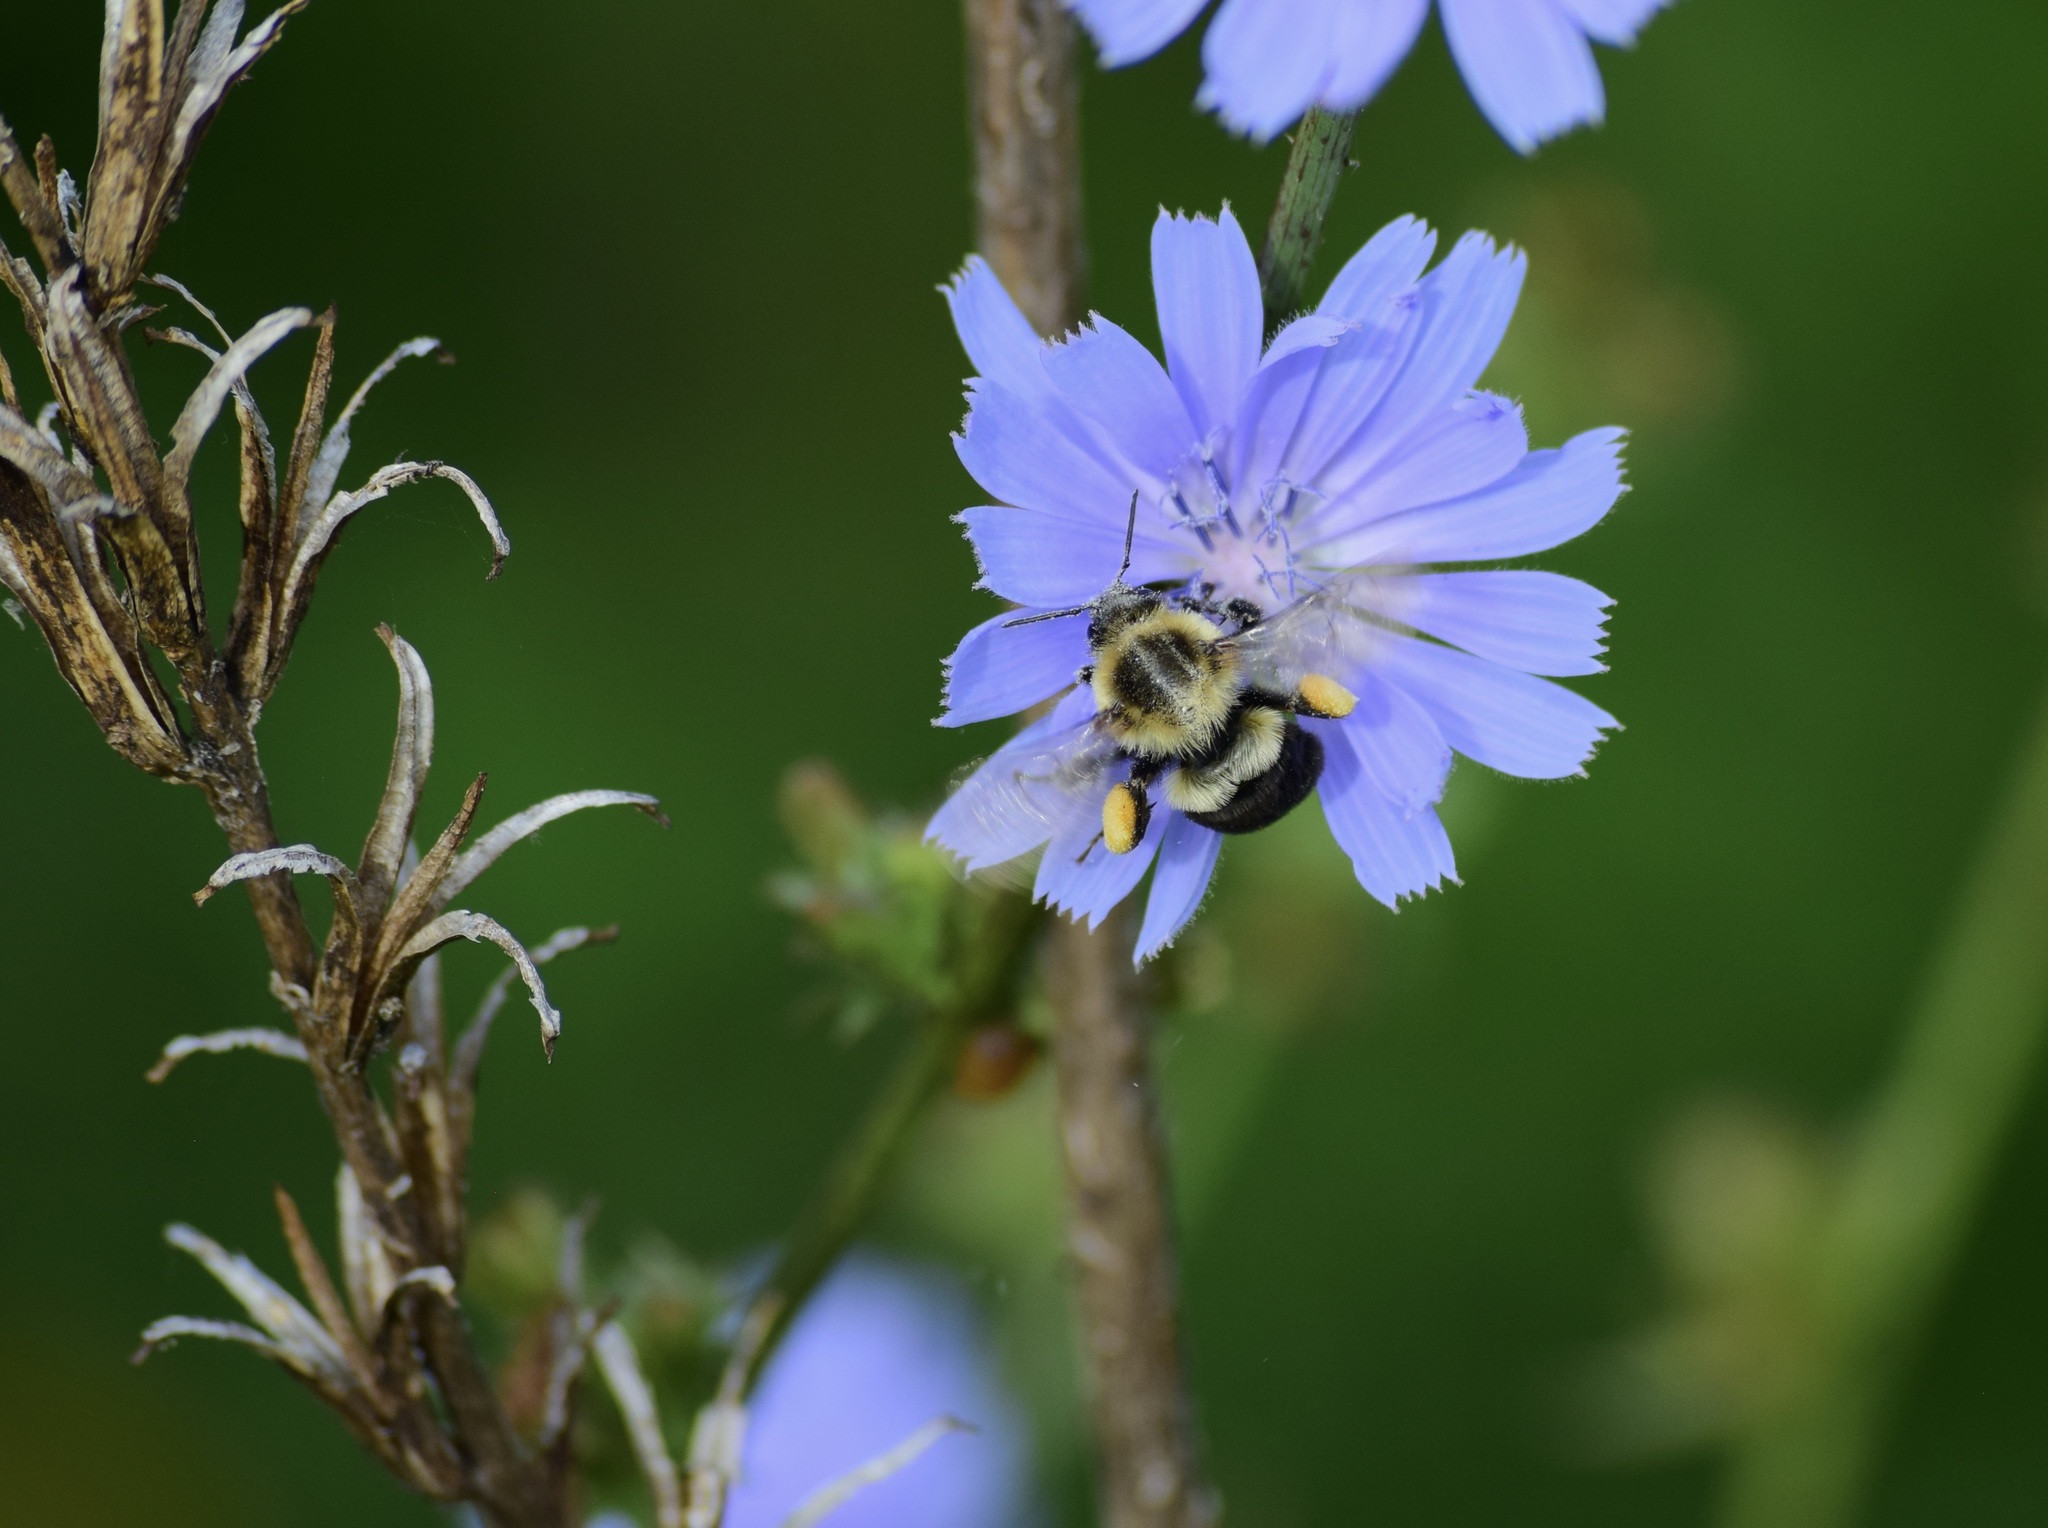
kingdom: Animalia
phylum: Arthropoda
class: Insecta
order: Hymenoptera
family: Apidae
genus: Bombus
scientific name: Bombus impatiens
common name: Common eastern bumble bee
